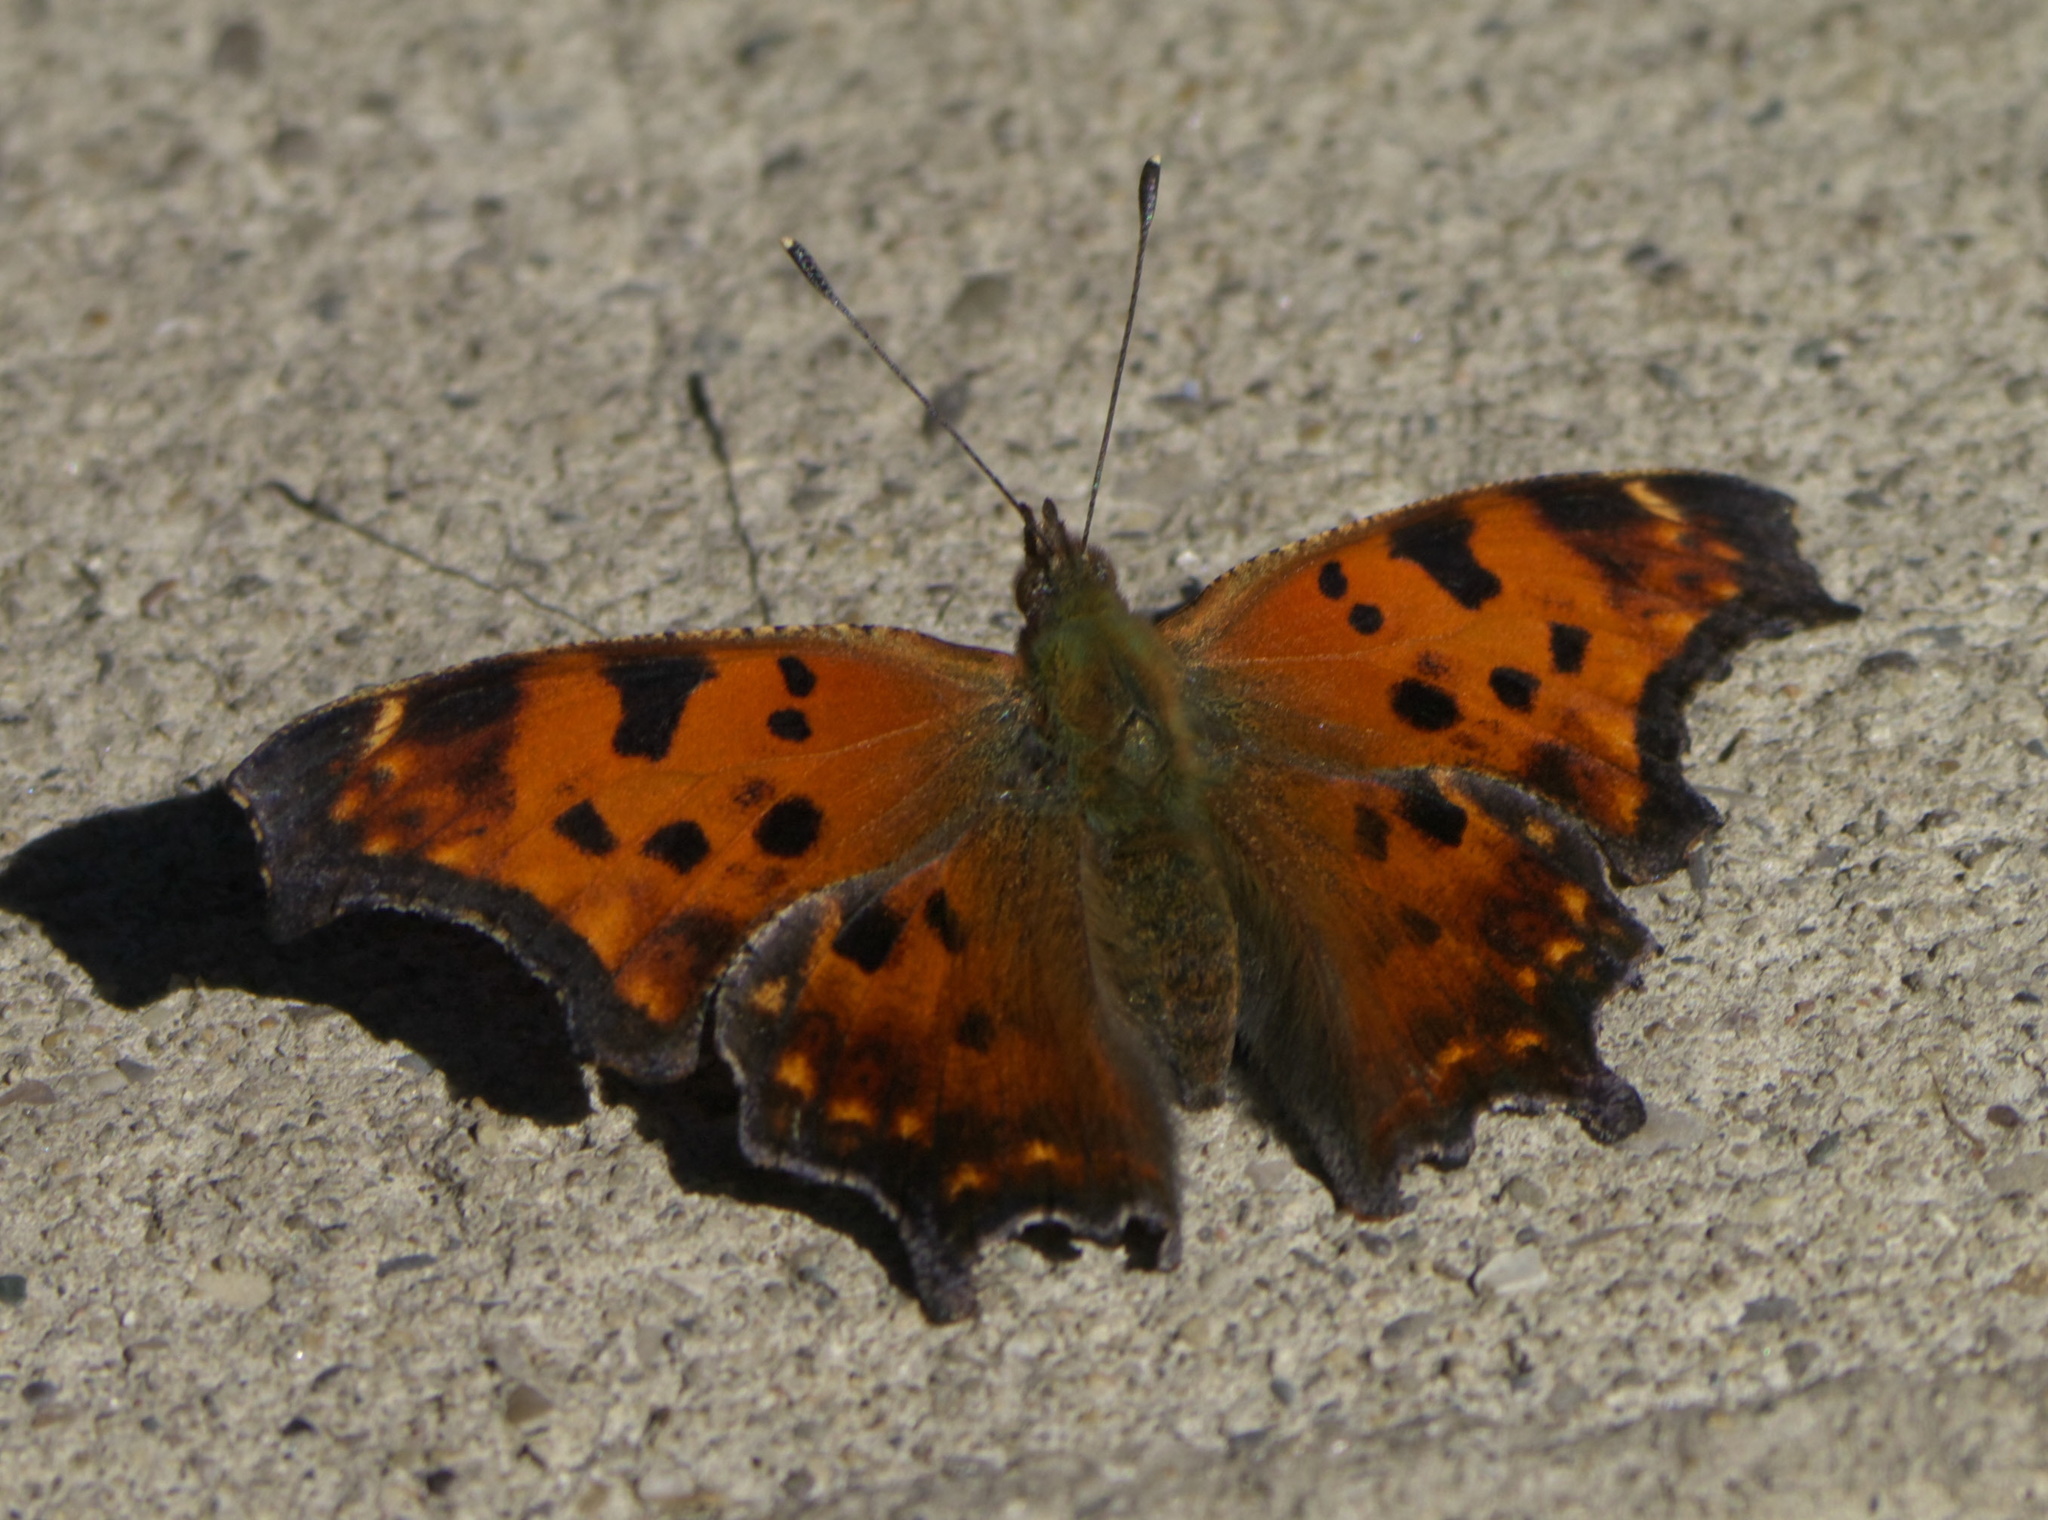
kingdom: Animalia
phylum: Arthropoda
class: Insecta
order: Lepidoptera
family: Nymphalidae
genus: Polygonia
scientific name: Polygonia comma
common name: Eastern comma
